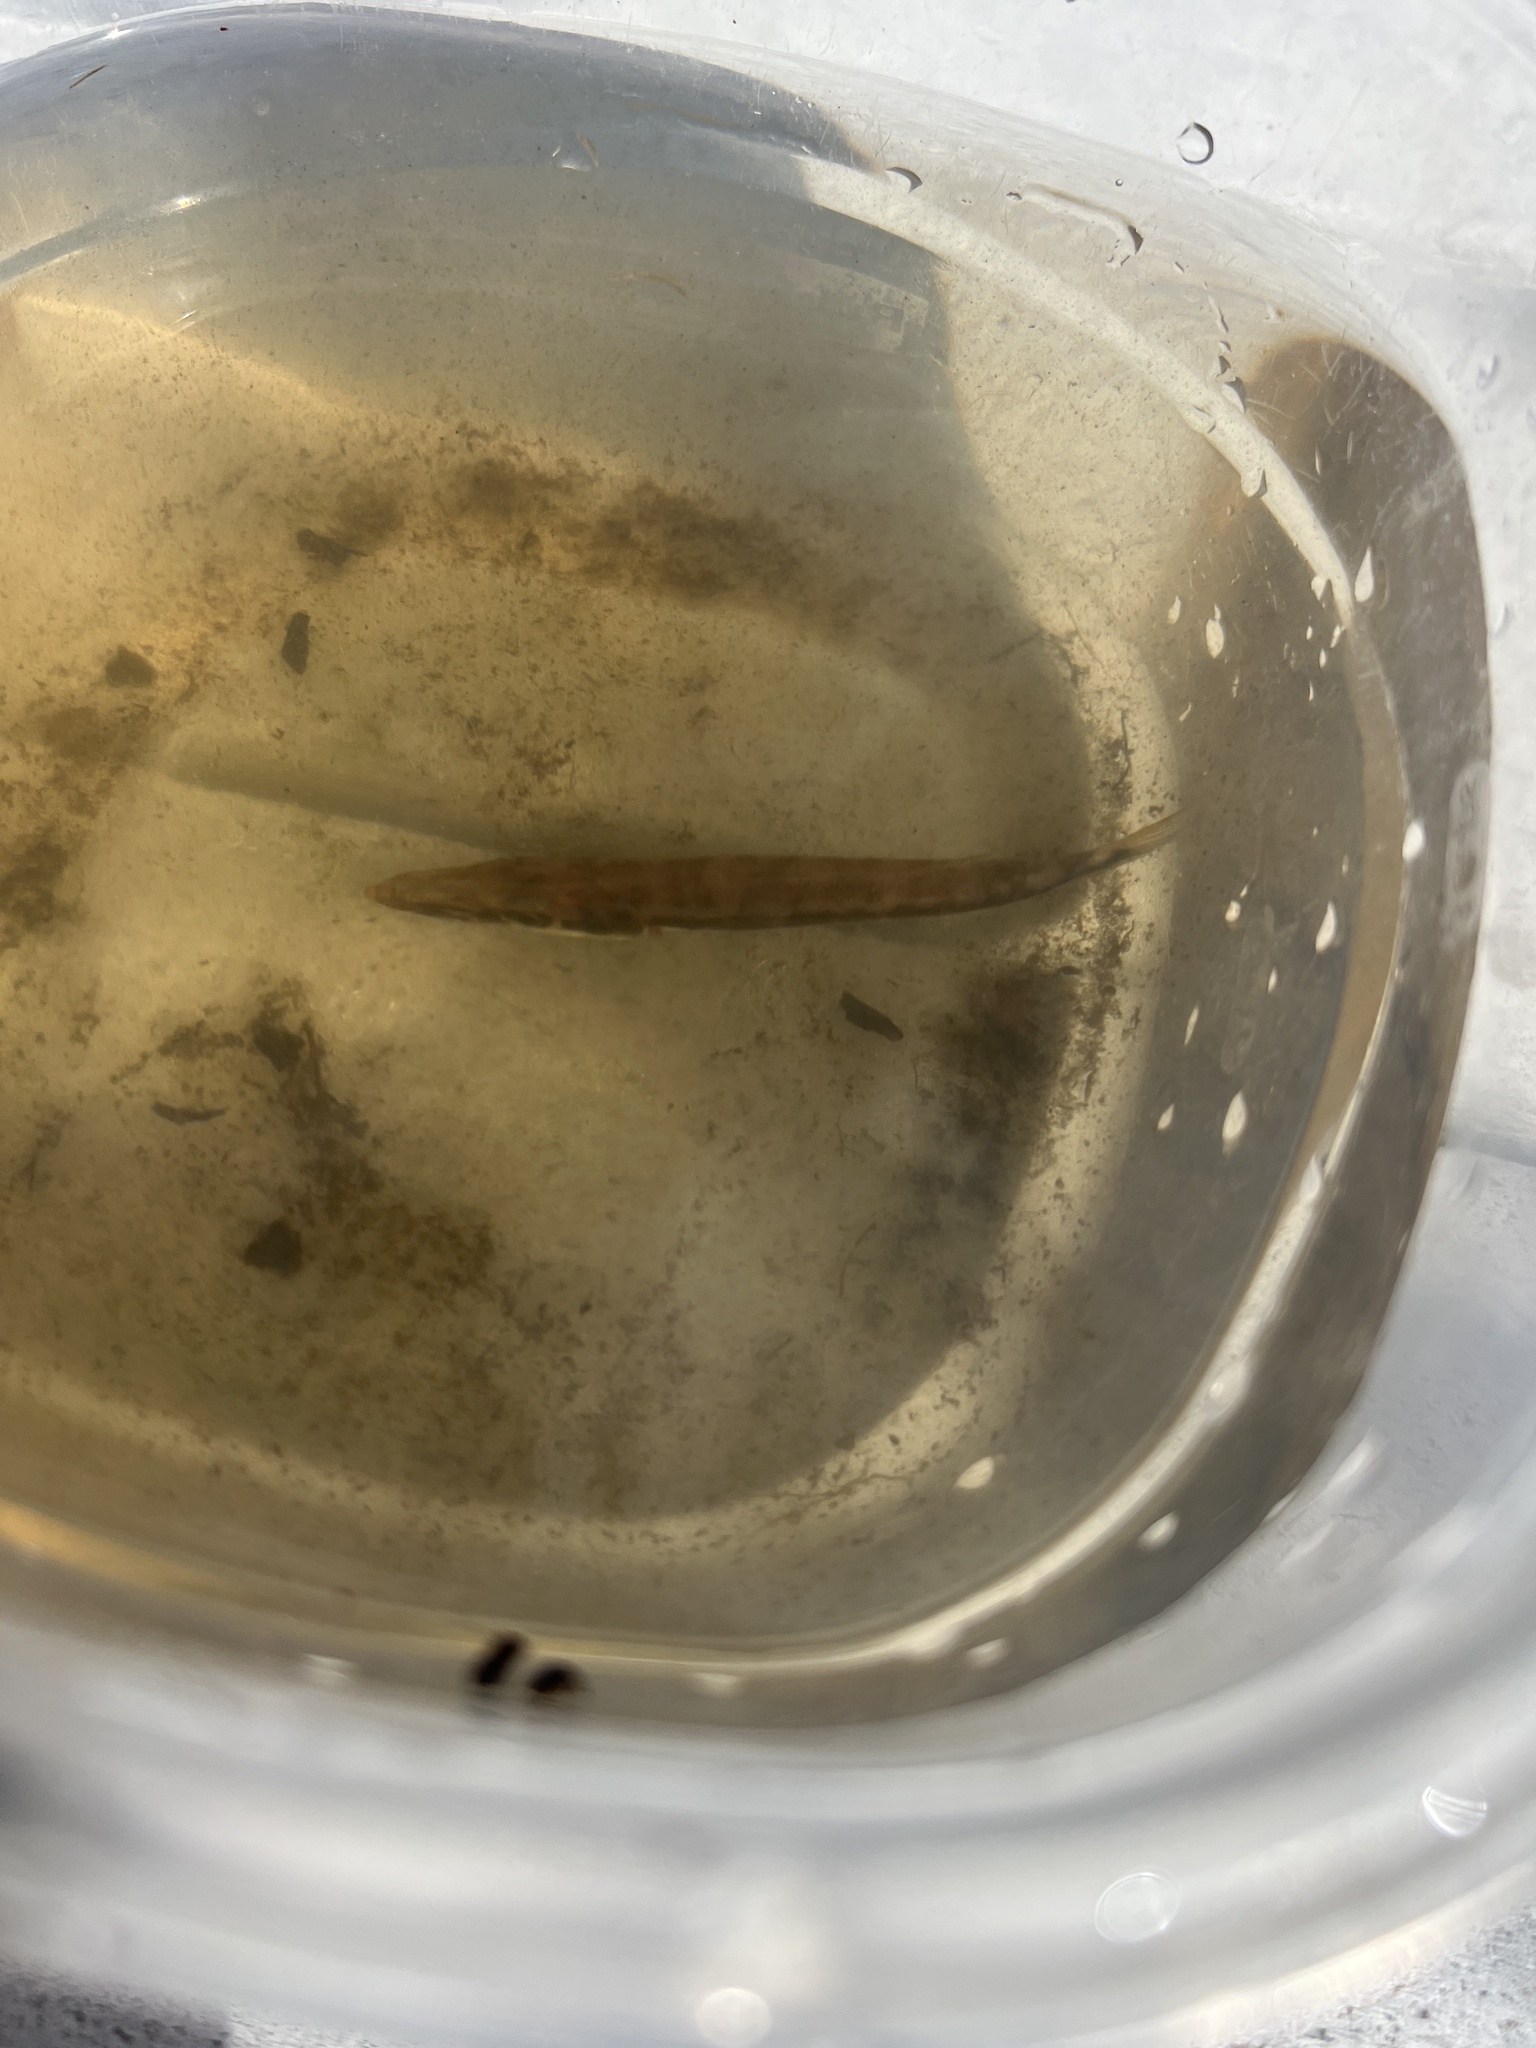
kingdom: Animalia
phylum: Chordata
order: Perciformes
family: Sphyraenidae
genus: Sphyraena
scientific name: Sphyraena barracuda
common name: Great barracuda
